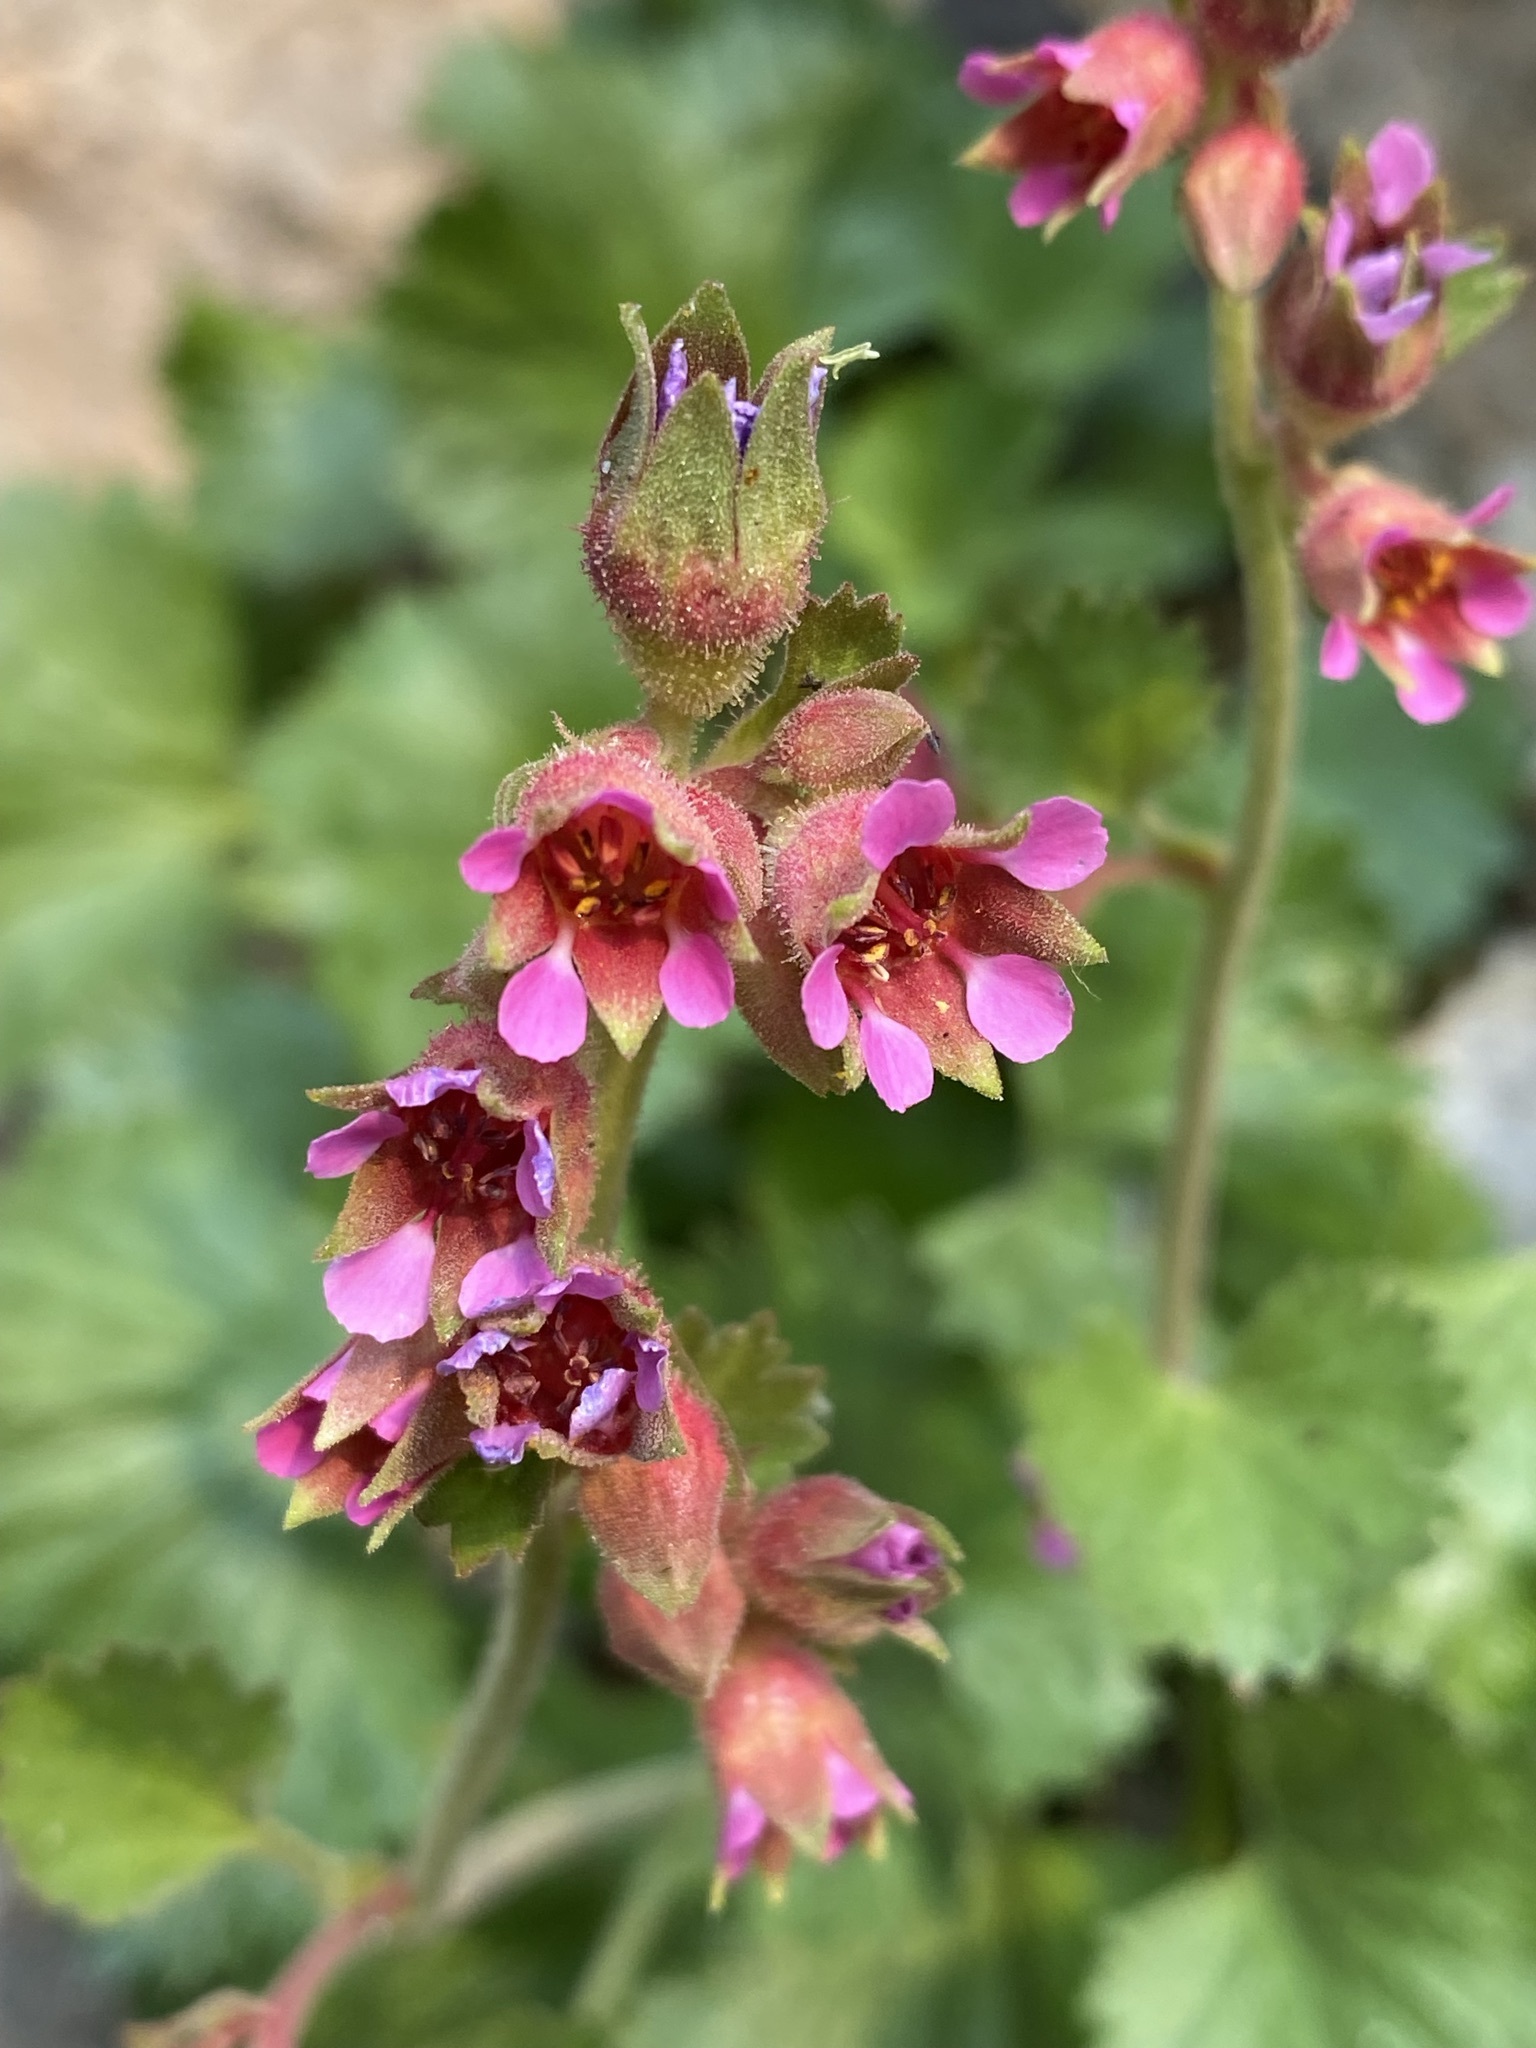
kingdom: Plantae
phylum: Tracheophyta
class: Magnoliopsida
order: Saxifragales
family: Saxifragaceae
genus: Telesonix
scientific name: Telesonix heucheriformis
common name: Alumroot brookfoam
